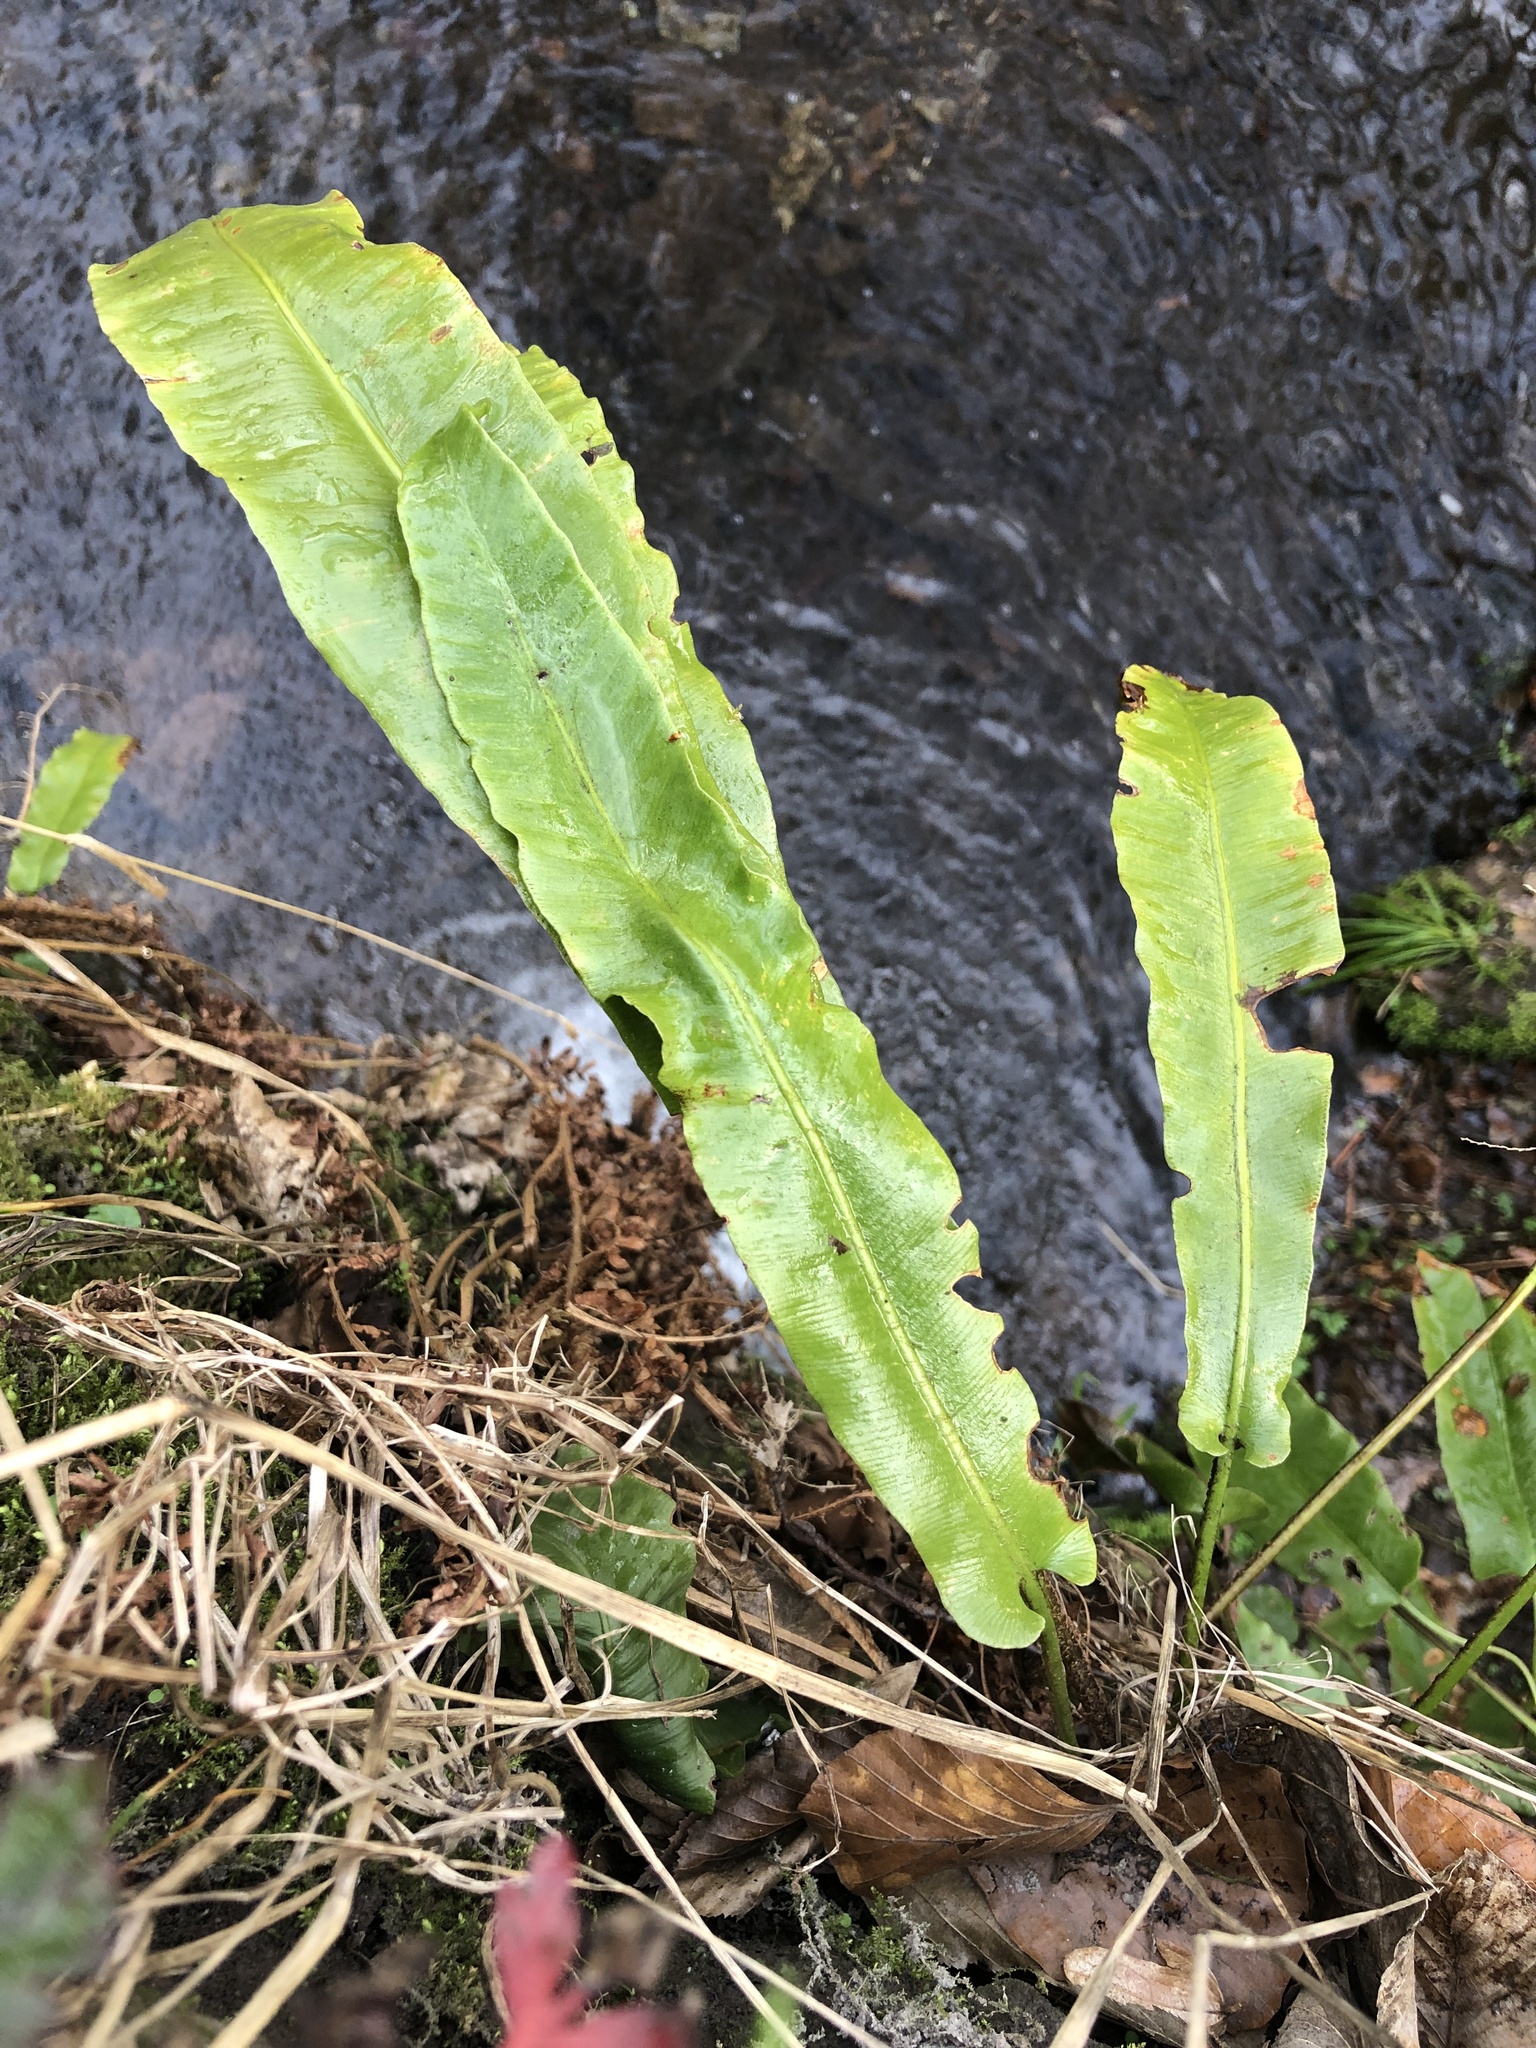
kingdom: Plantae
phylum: Tracheophyta
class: Polypodiopsida
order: Polypodiales
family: Aspleniaceae
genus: Asplenium
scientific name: Asplenium scolopendrium
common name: Hart's-tongue fern
